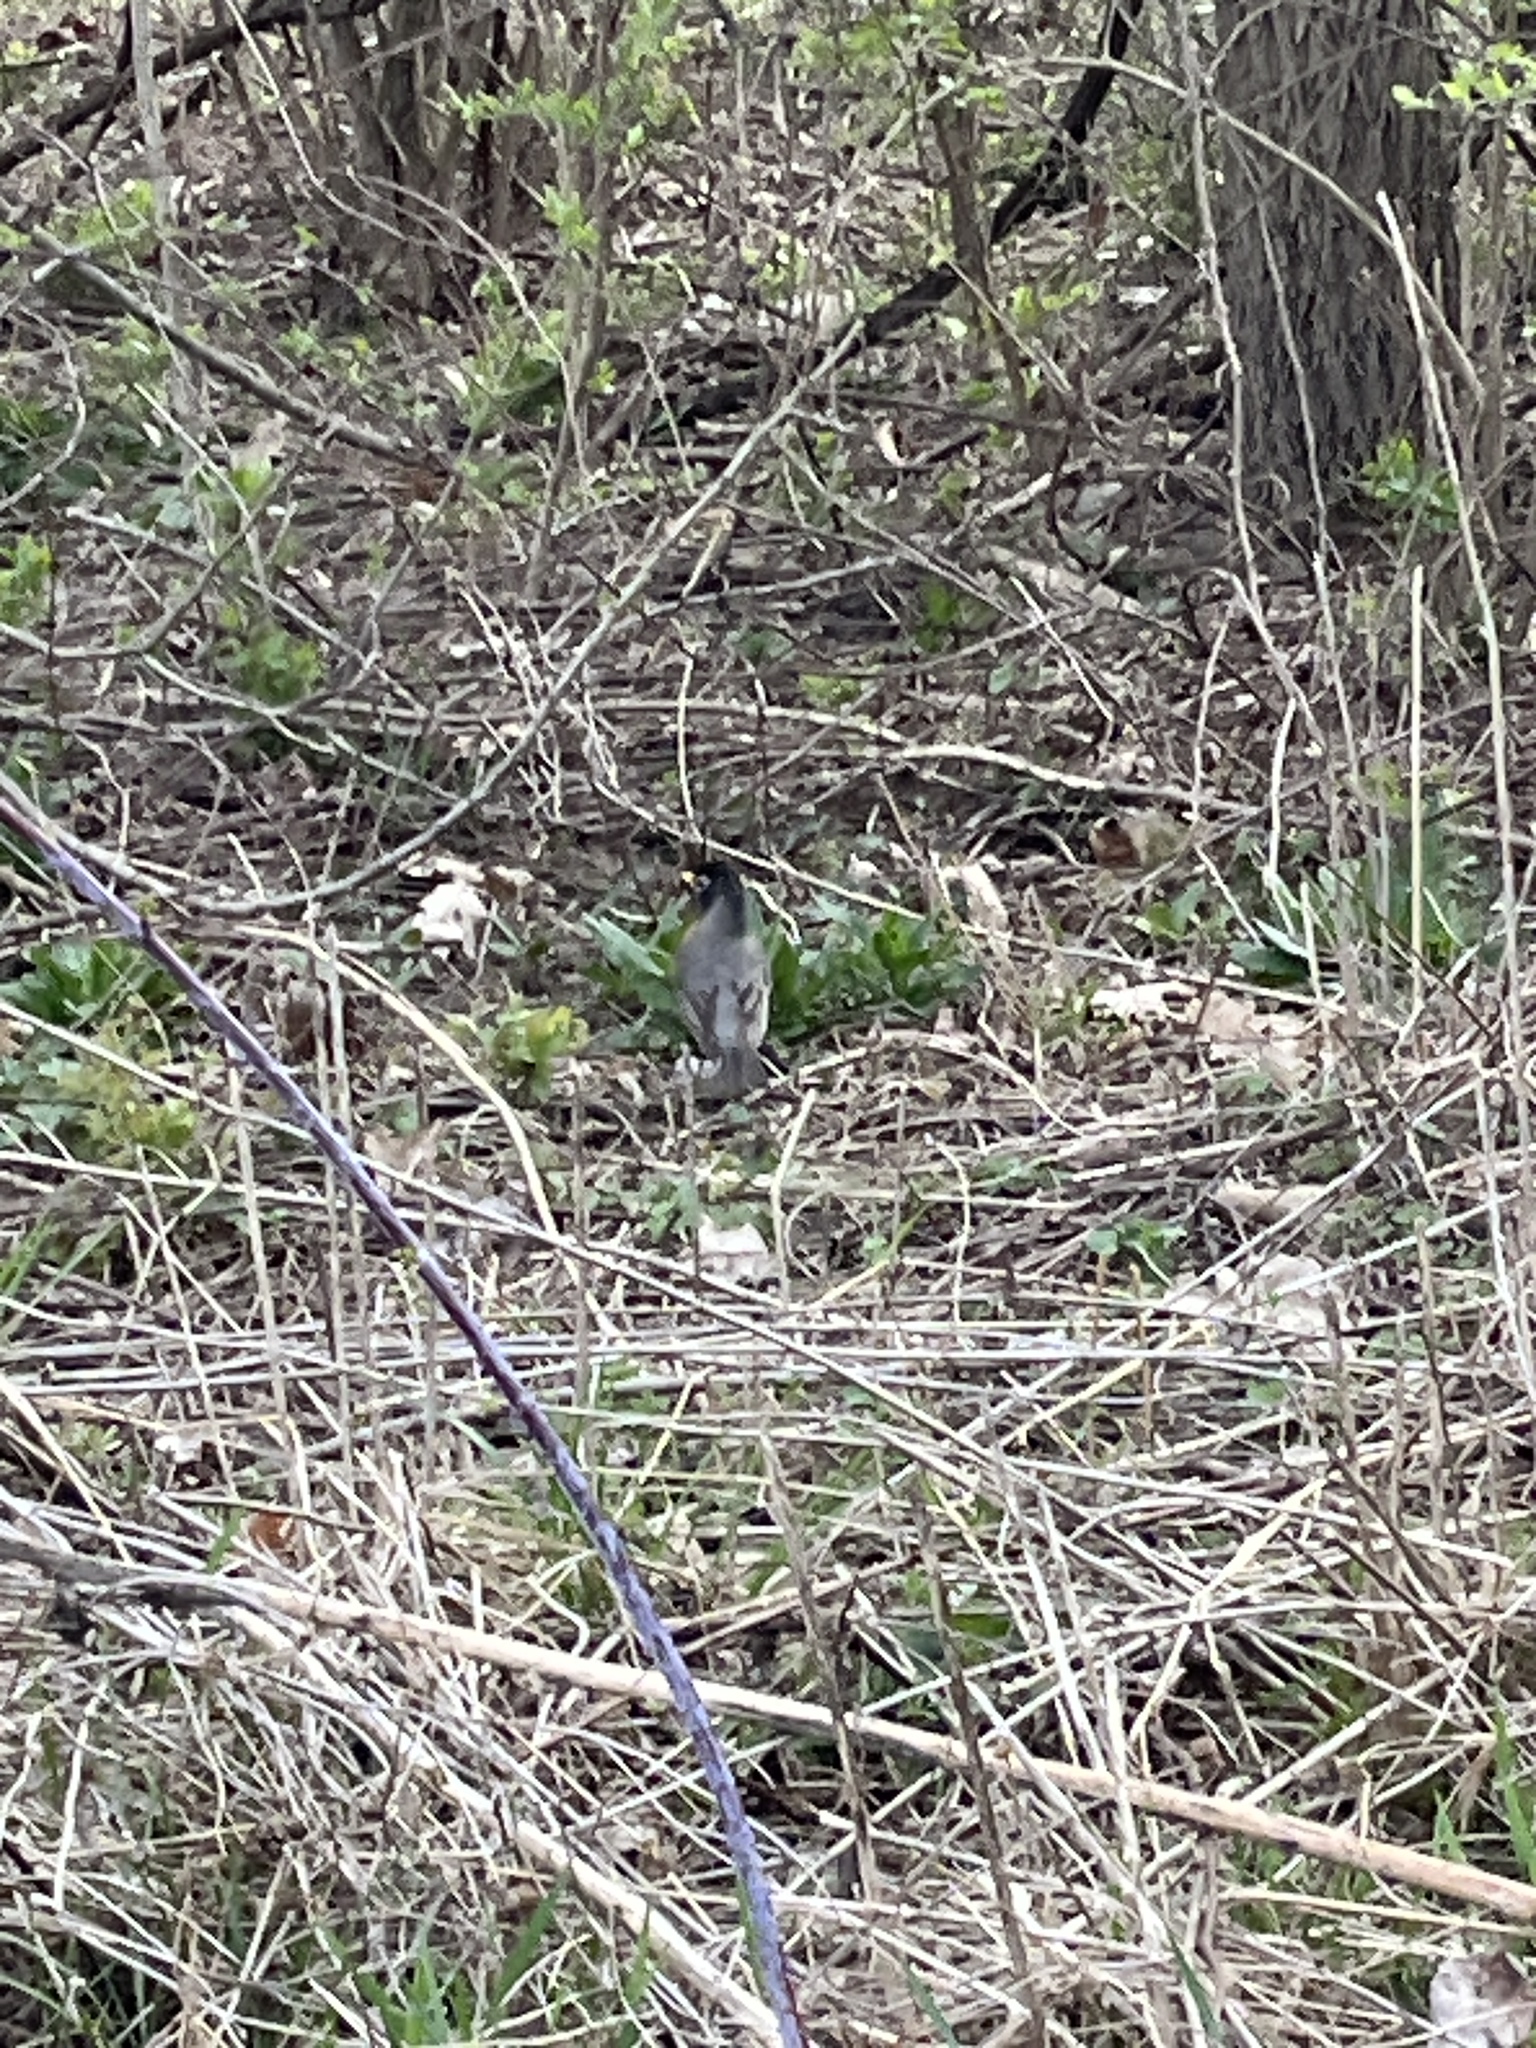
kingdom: Animalia
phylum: Chordata
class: Aves
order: Passeriformes
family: Turdidae
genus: Turdus
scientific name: Turdus migratorius
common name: American robin
